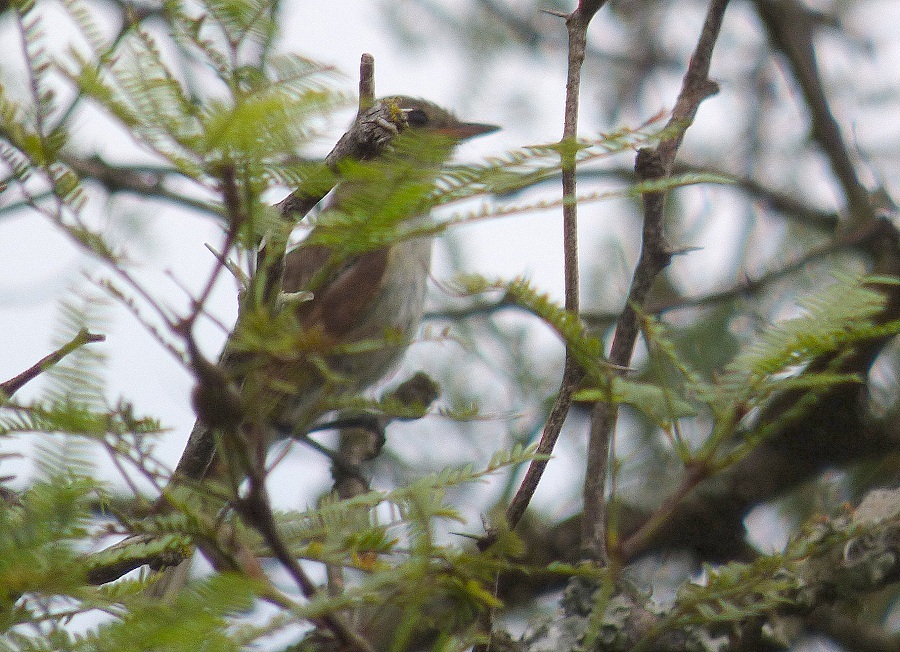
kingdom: Animalia
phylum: Chordata
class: Aves
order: Passeriformes
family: Tyrannidae
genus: Lathrotriccus
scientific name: Lathrotriccus euleri
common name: Euler's flycatcher
